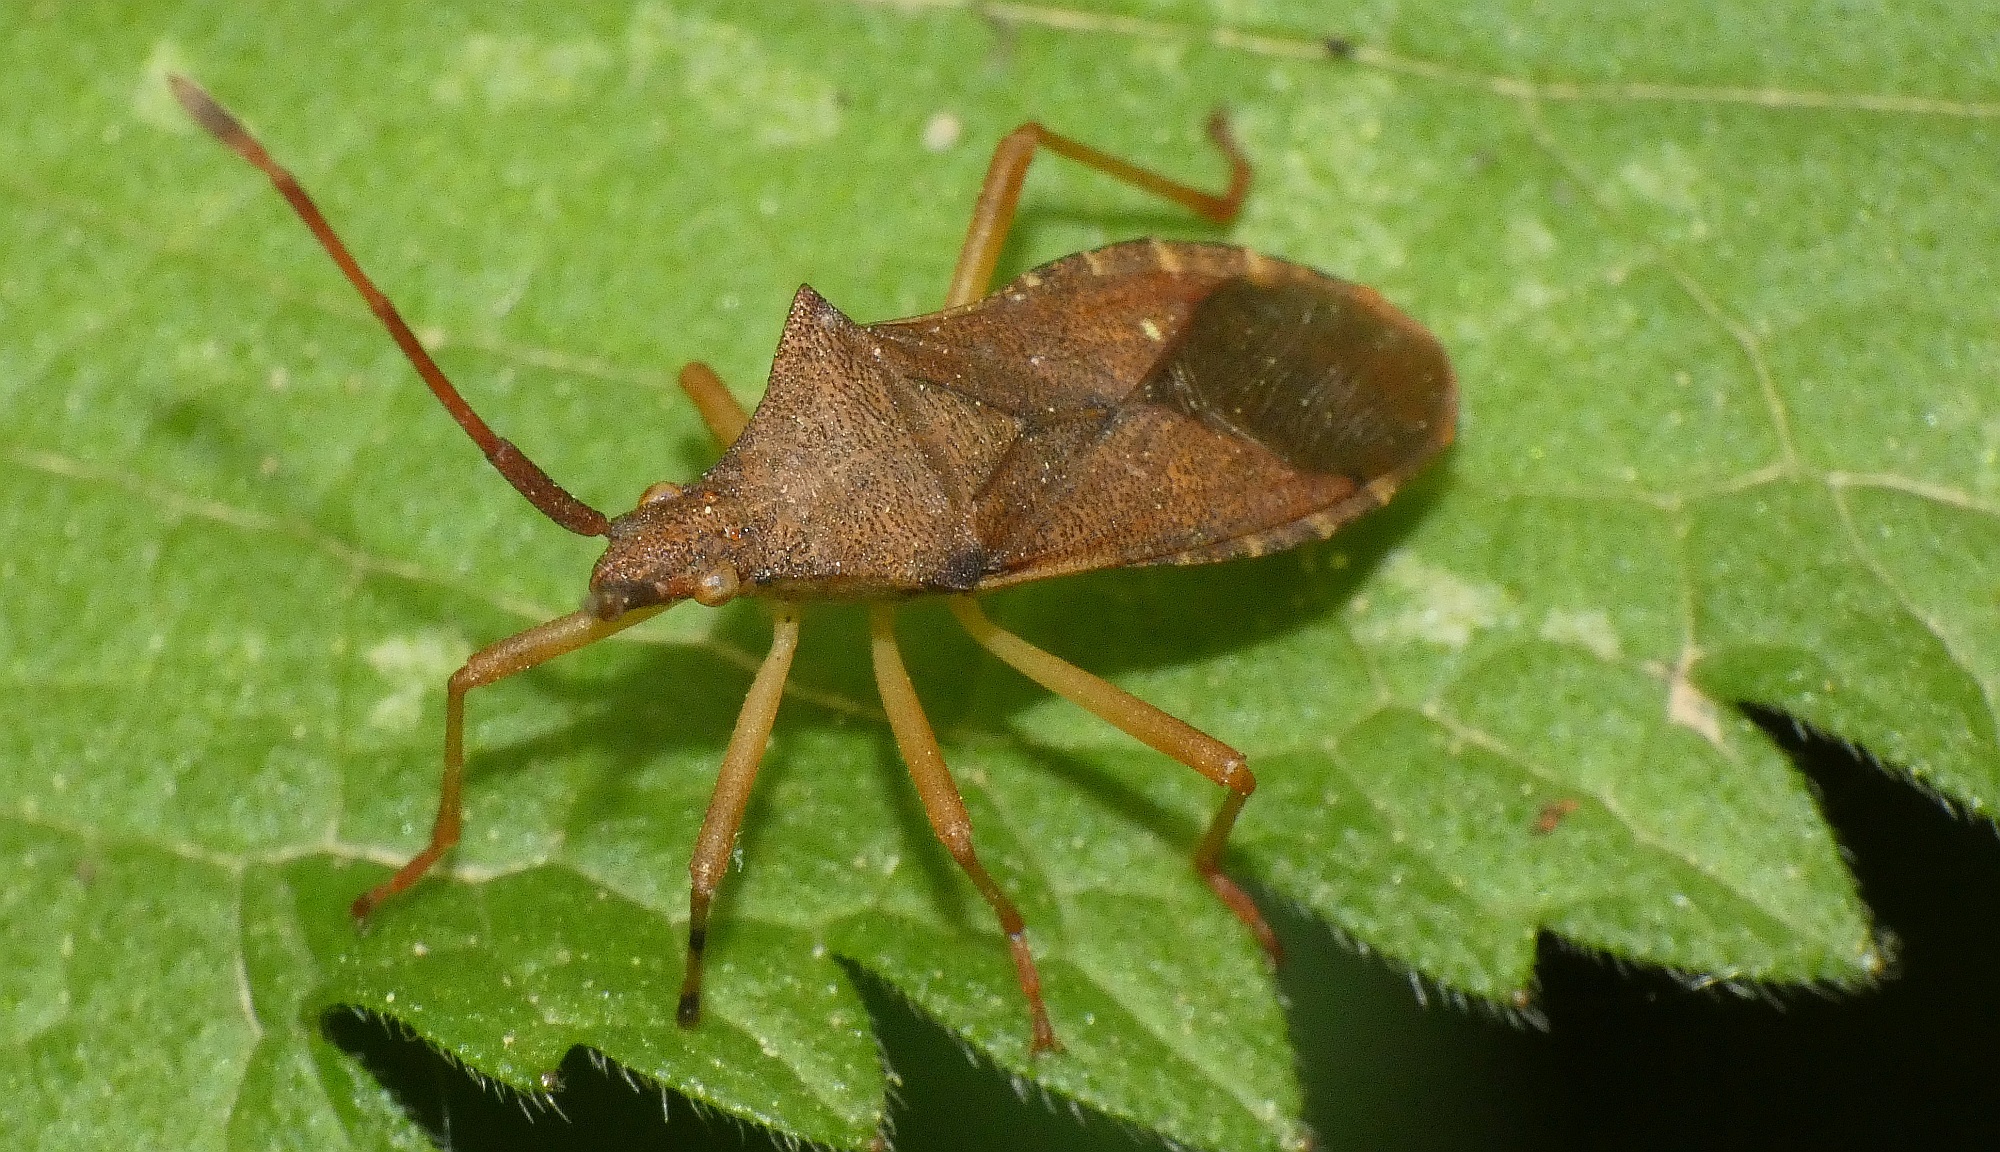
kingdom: Animalia
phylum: Arthropoda
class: Insecta
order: Hemiptera
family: Coreidae
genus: Gonocerus
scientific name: Gonocerus acuteangulatus
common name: Box bug
